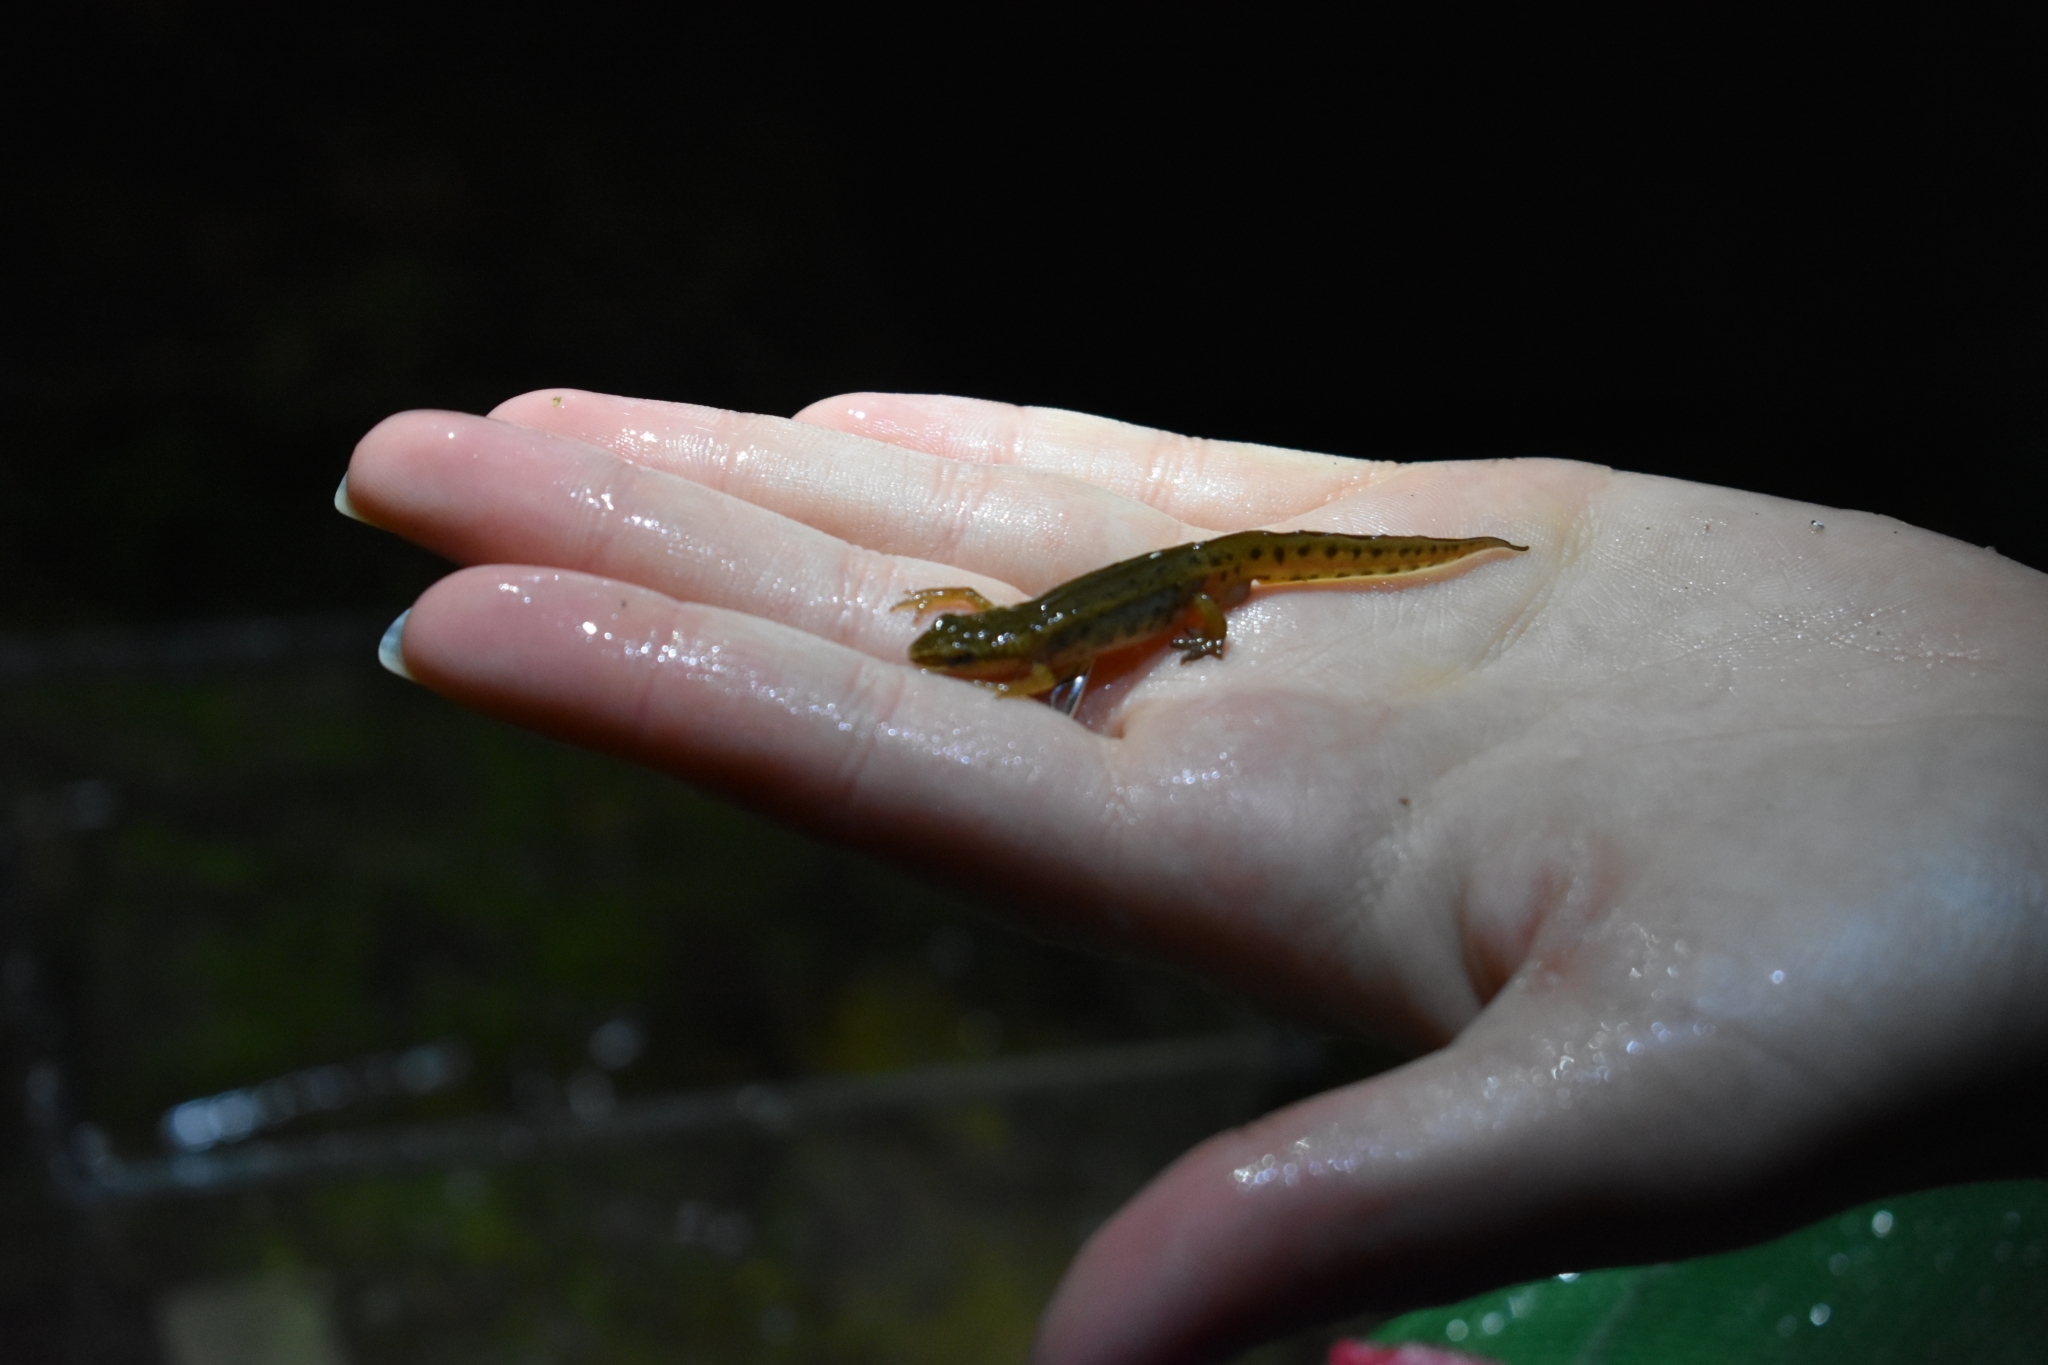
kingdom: Animalia
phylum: Chordata
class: Amphibia
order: Caudata
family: Salamandridae
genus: Lissotriton
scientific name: Lissotriton helveticus
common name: Palmate newt
